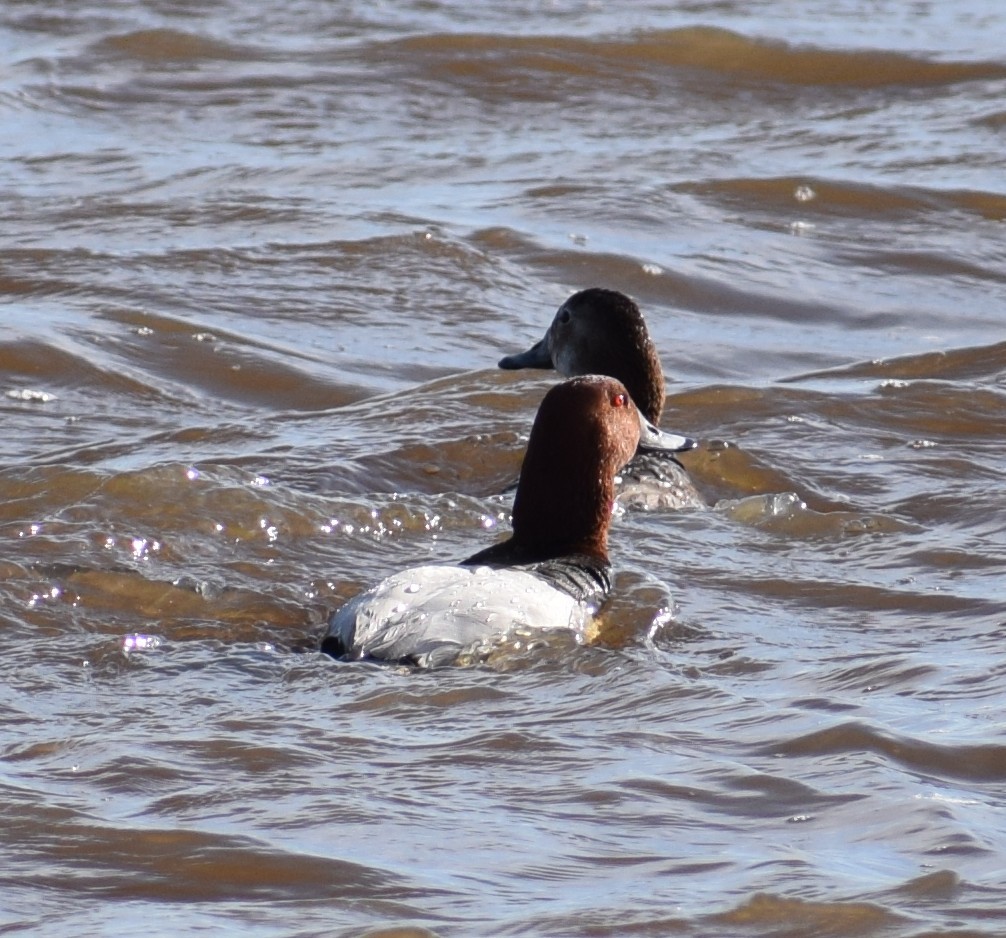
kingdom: Animalia
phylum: Chordata
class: Aves
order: Anseriformes
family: Anatidae
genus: Aythya
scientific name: Aythya ferina
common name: Common pochard
